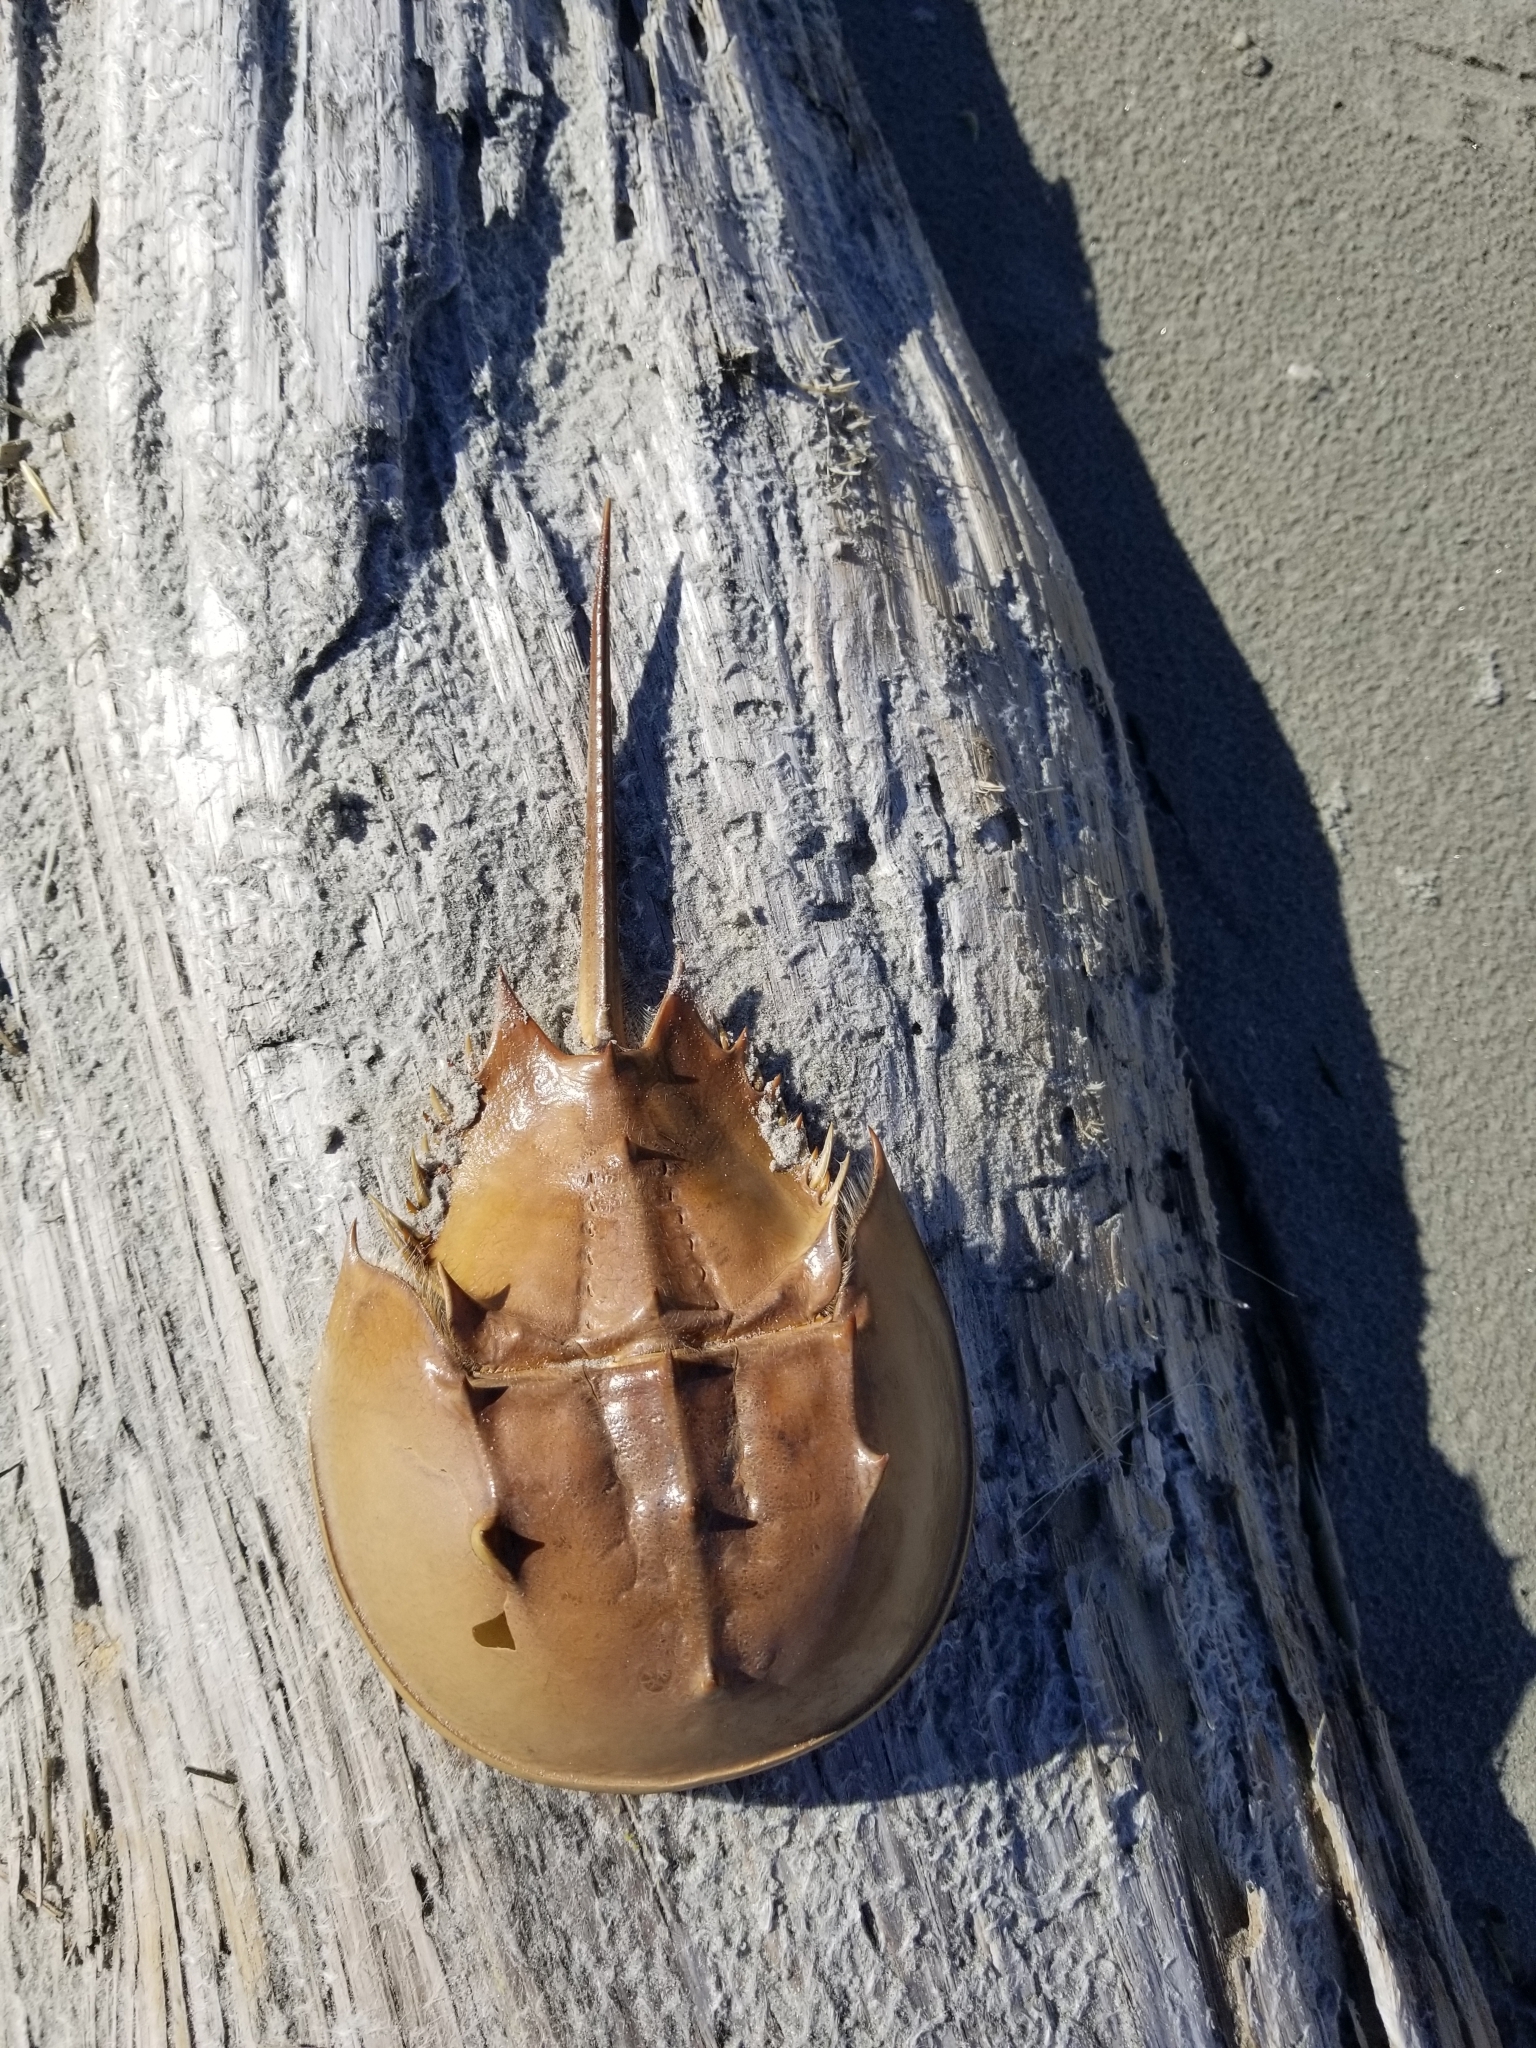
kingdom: Animalia
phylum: Arthropoda
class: Merostomata
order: Xiphosurida
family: Limulidae
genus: Limulus
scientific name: Limulus polyphemus
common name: Horseshoe crab
